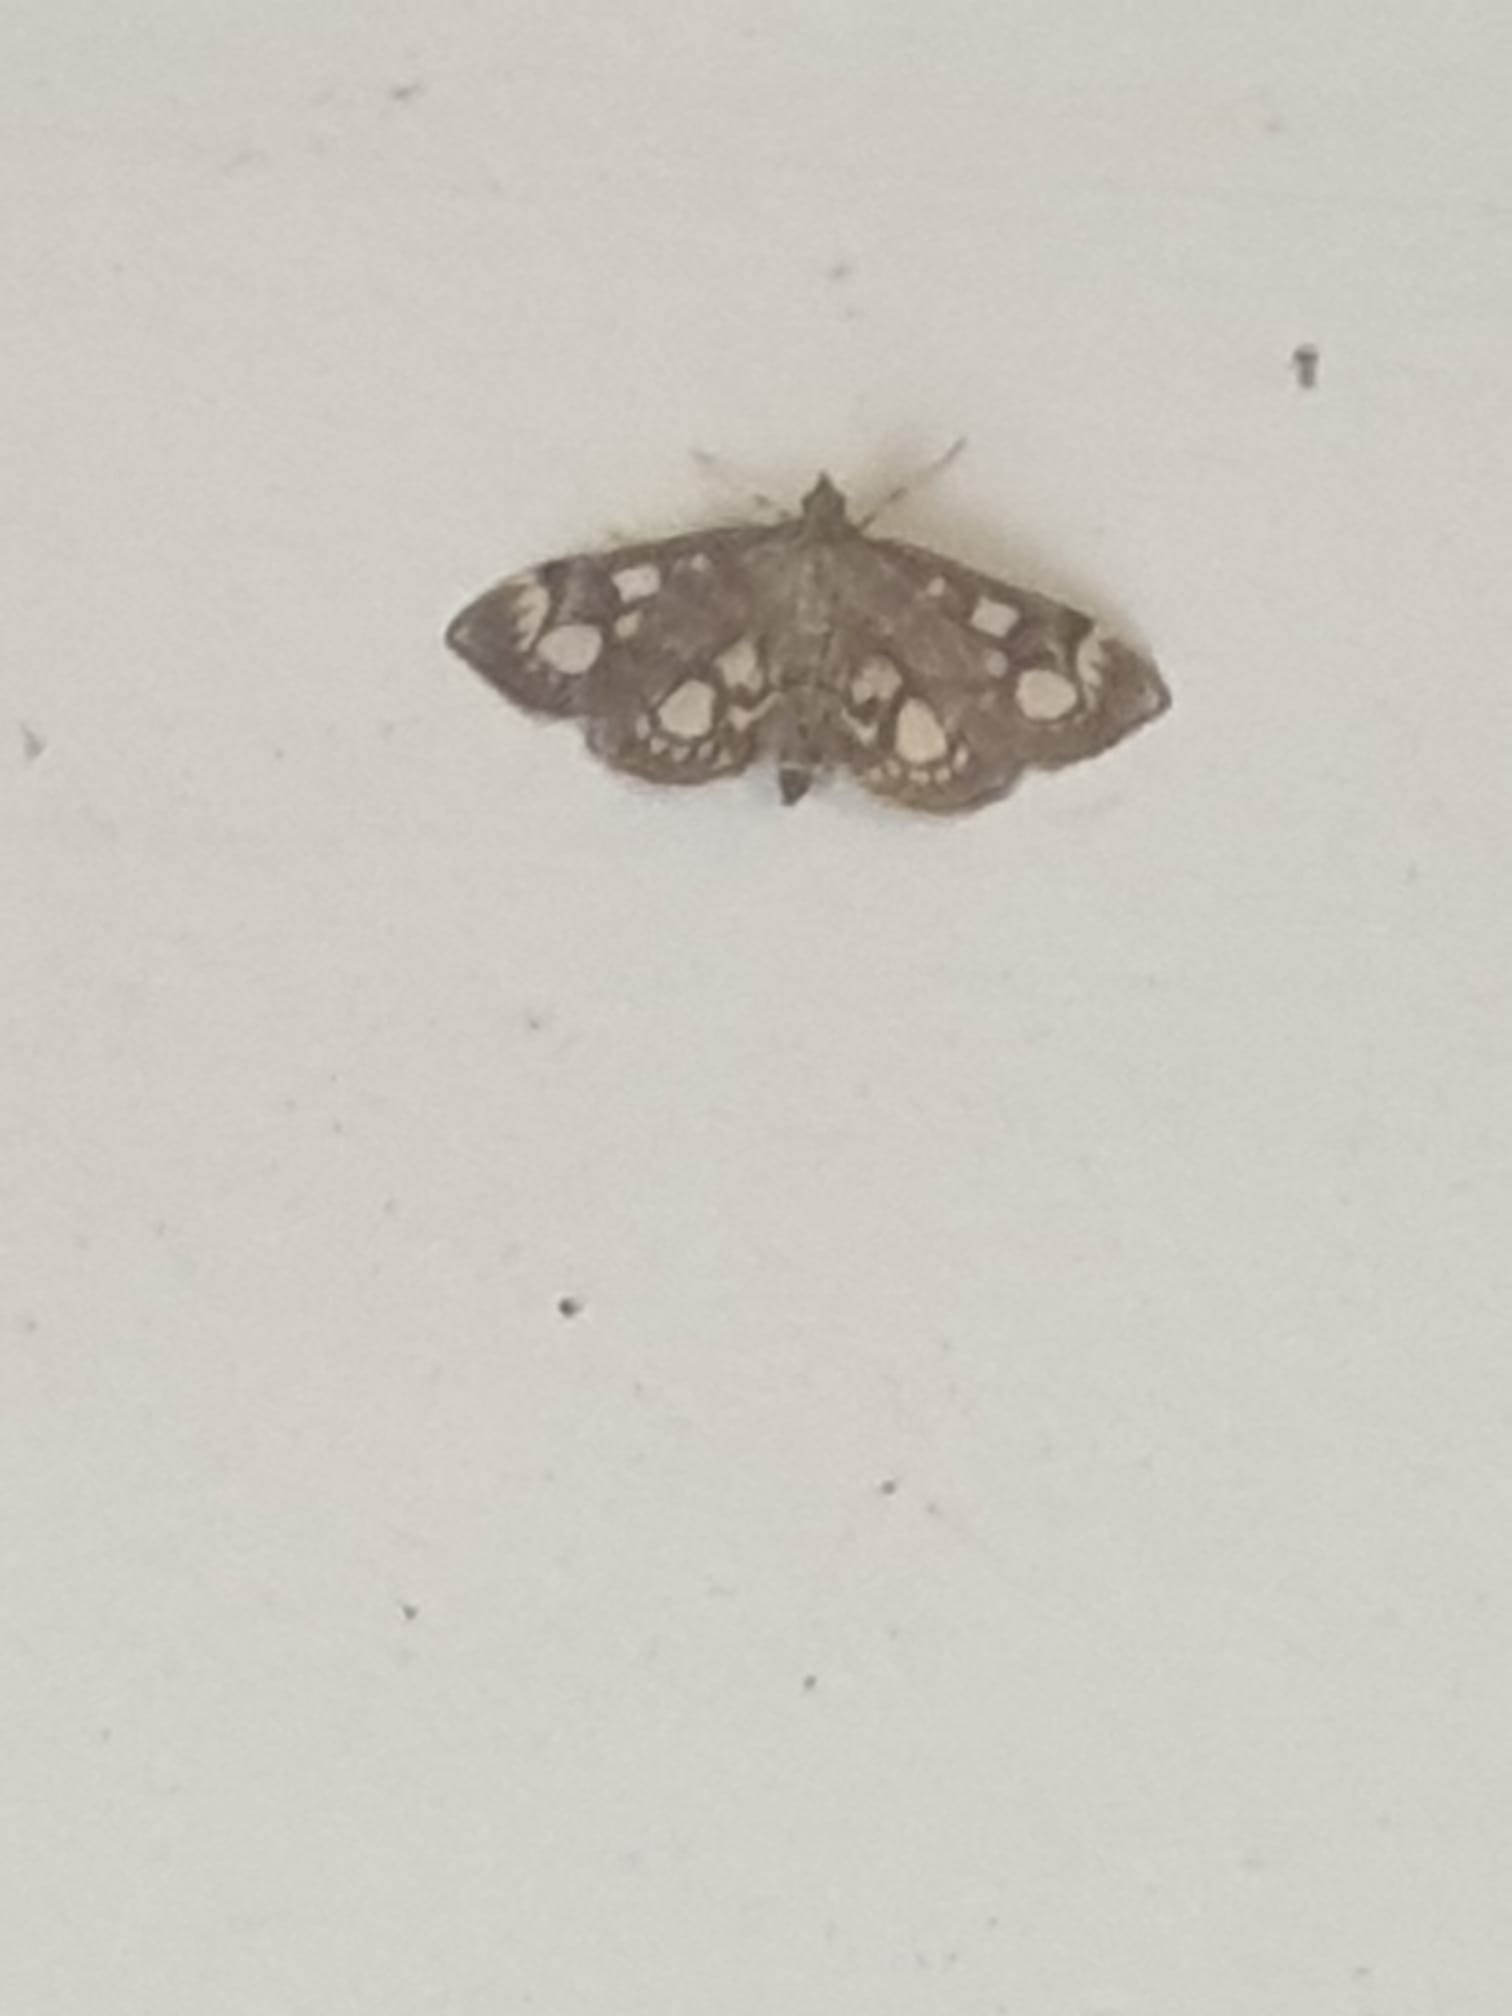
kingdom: Animalia
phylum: Arthropoda
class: Insecta
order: Lepidoptera
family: Crambidae
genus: Anania
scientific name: Anania coronata
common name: Elder pearl
